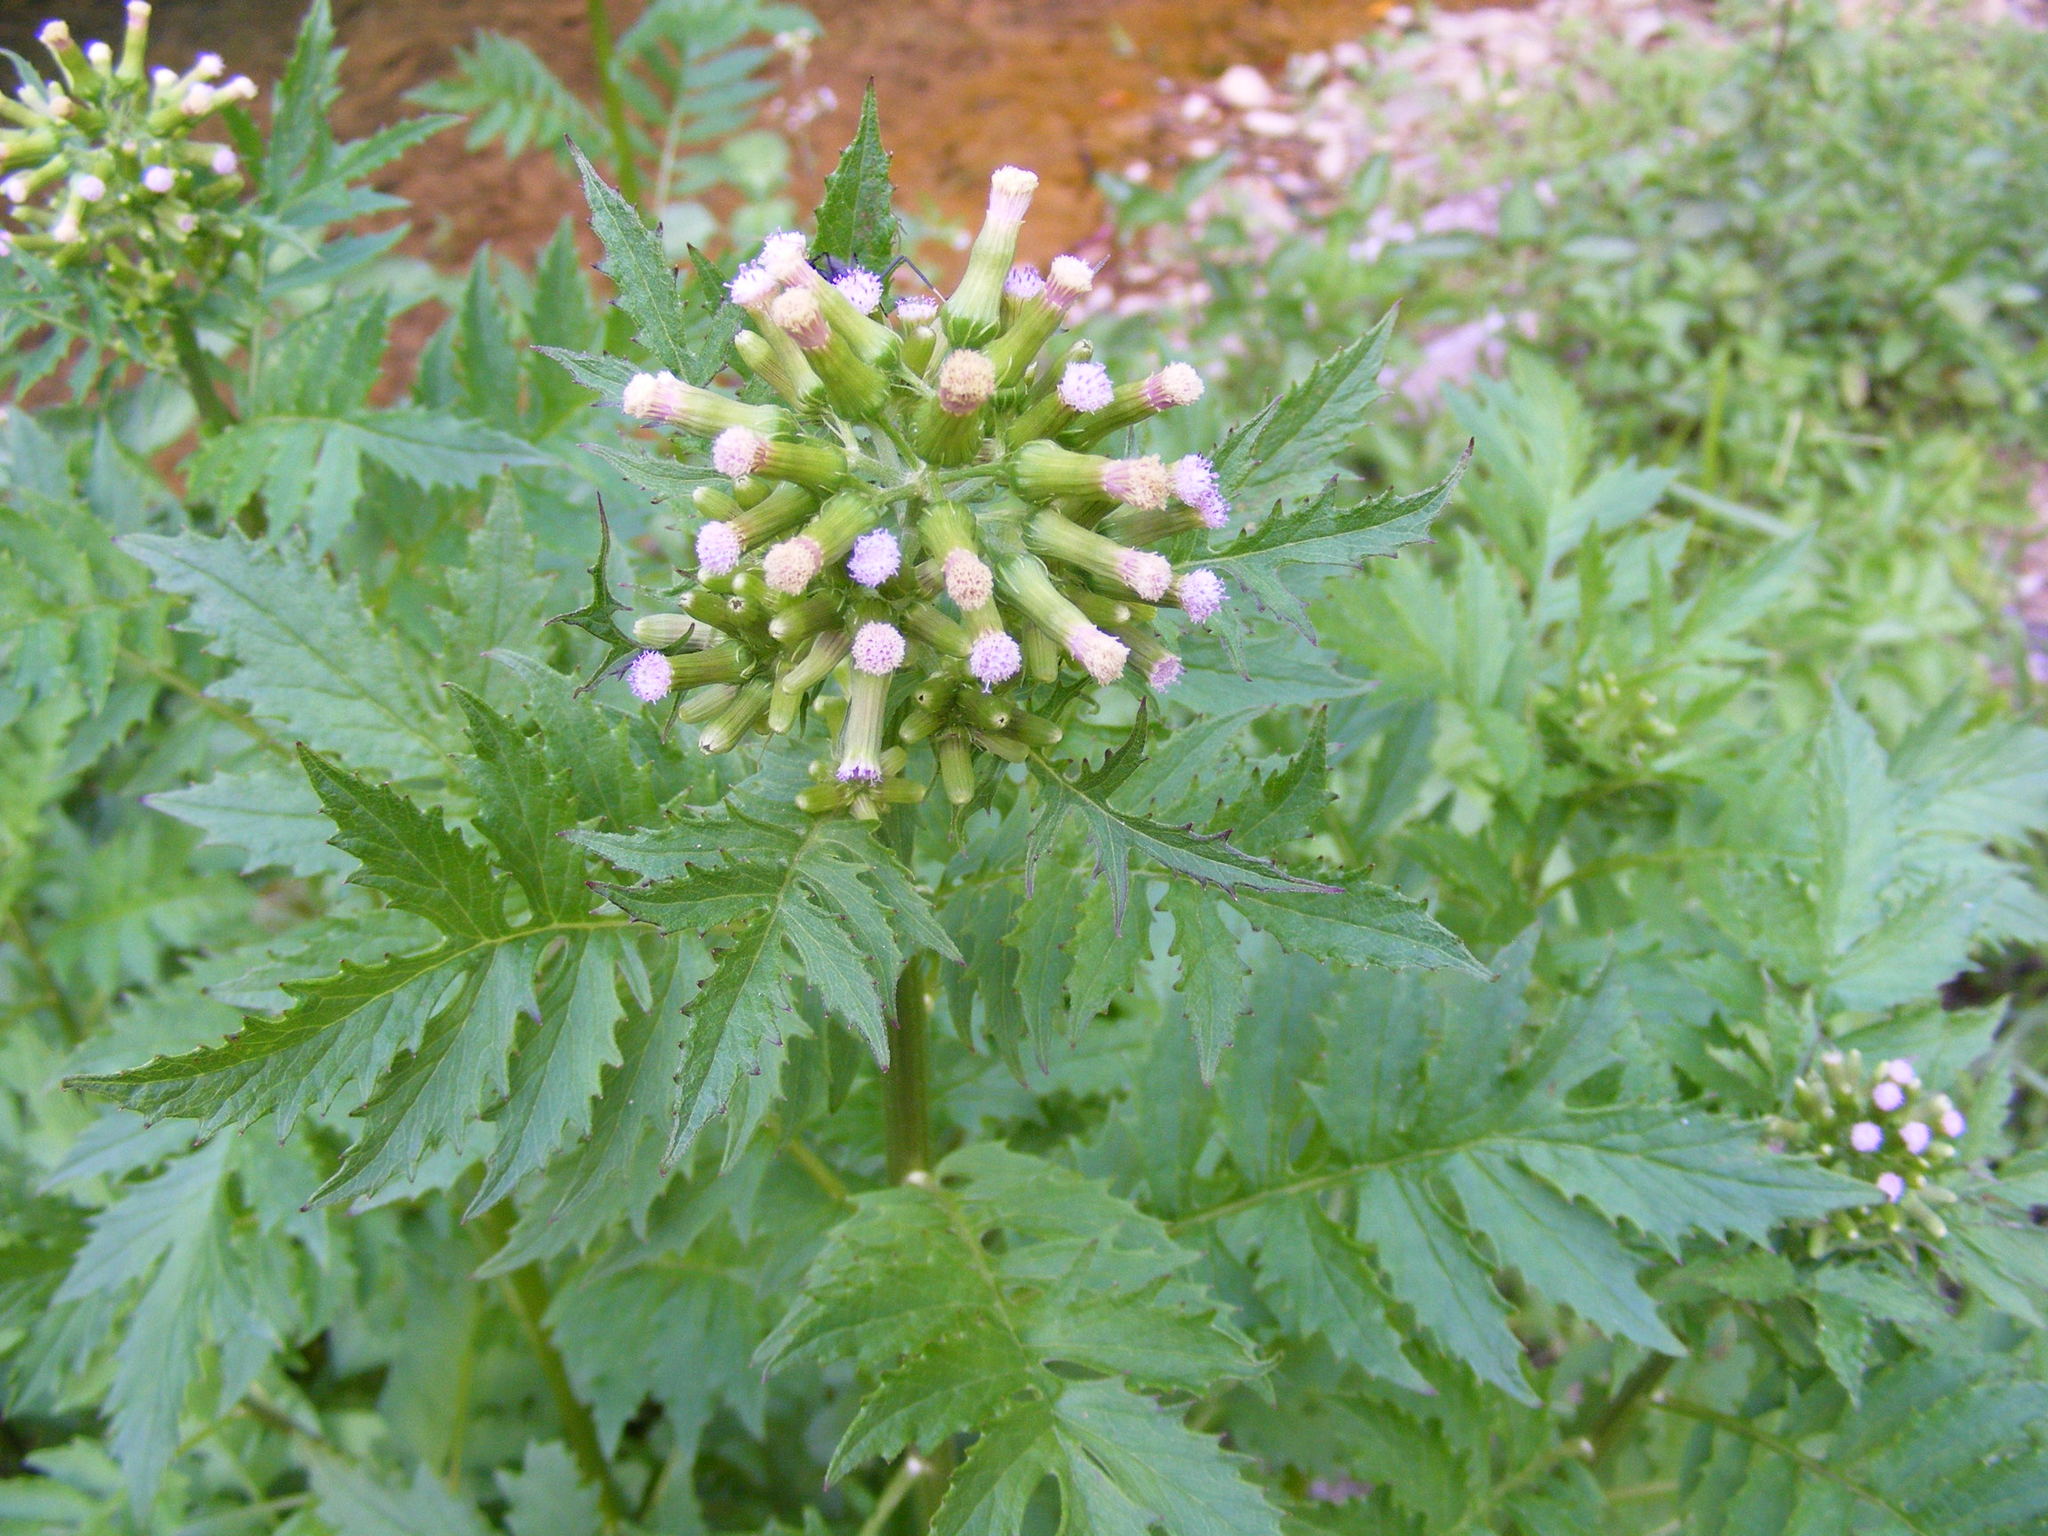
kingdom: Plantae
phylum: Tracheophyta
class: Magnoliopsida
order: Asterales
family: Asteraceae
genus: Erechtites
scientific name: Erechtites valerianifolius
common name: Tropical burnweed
